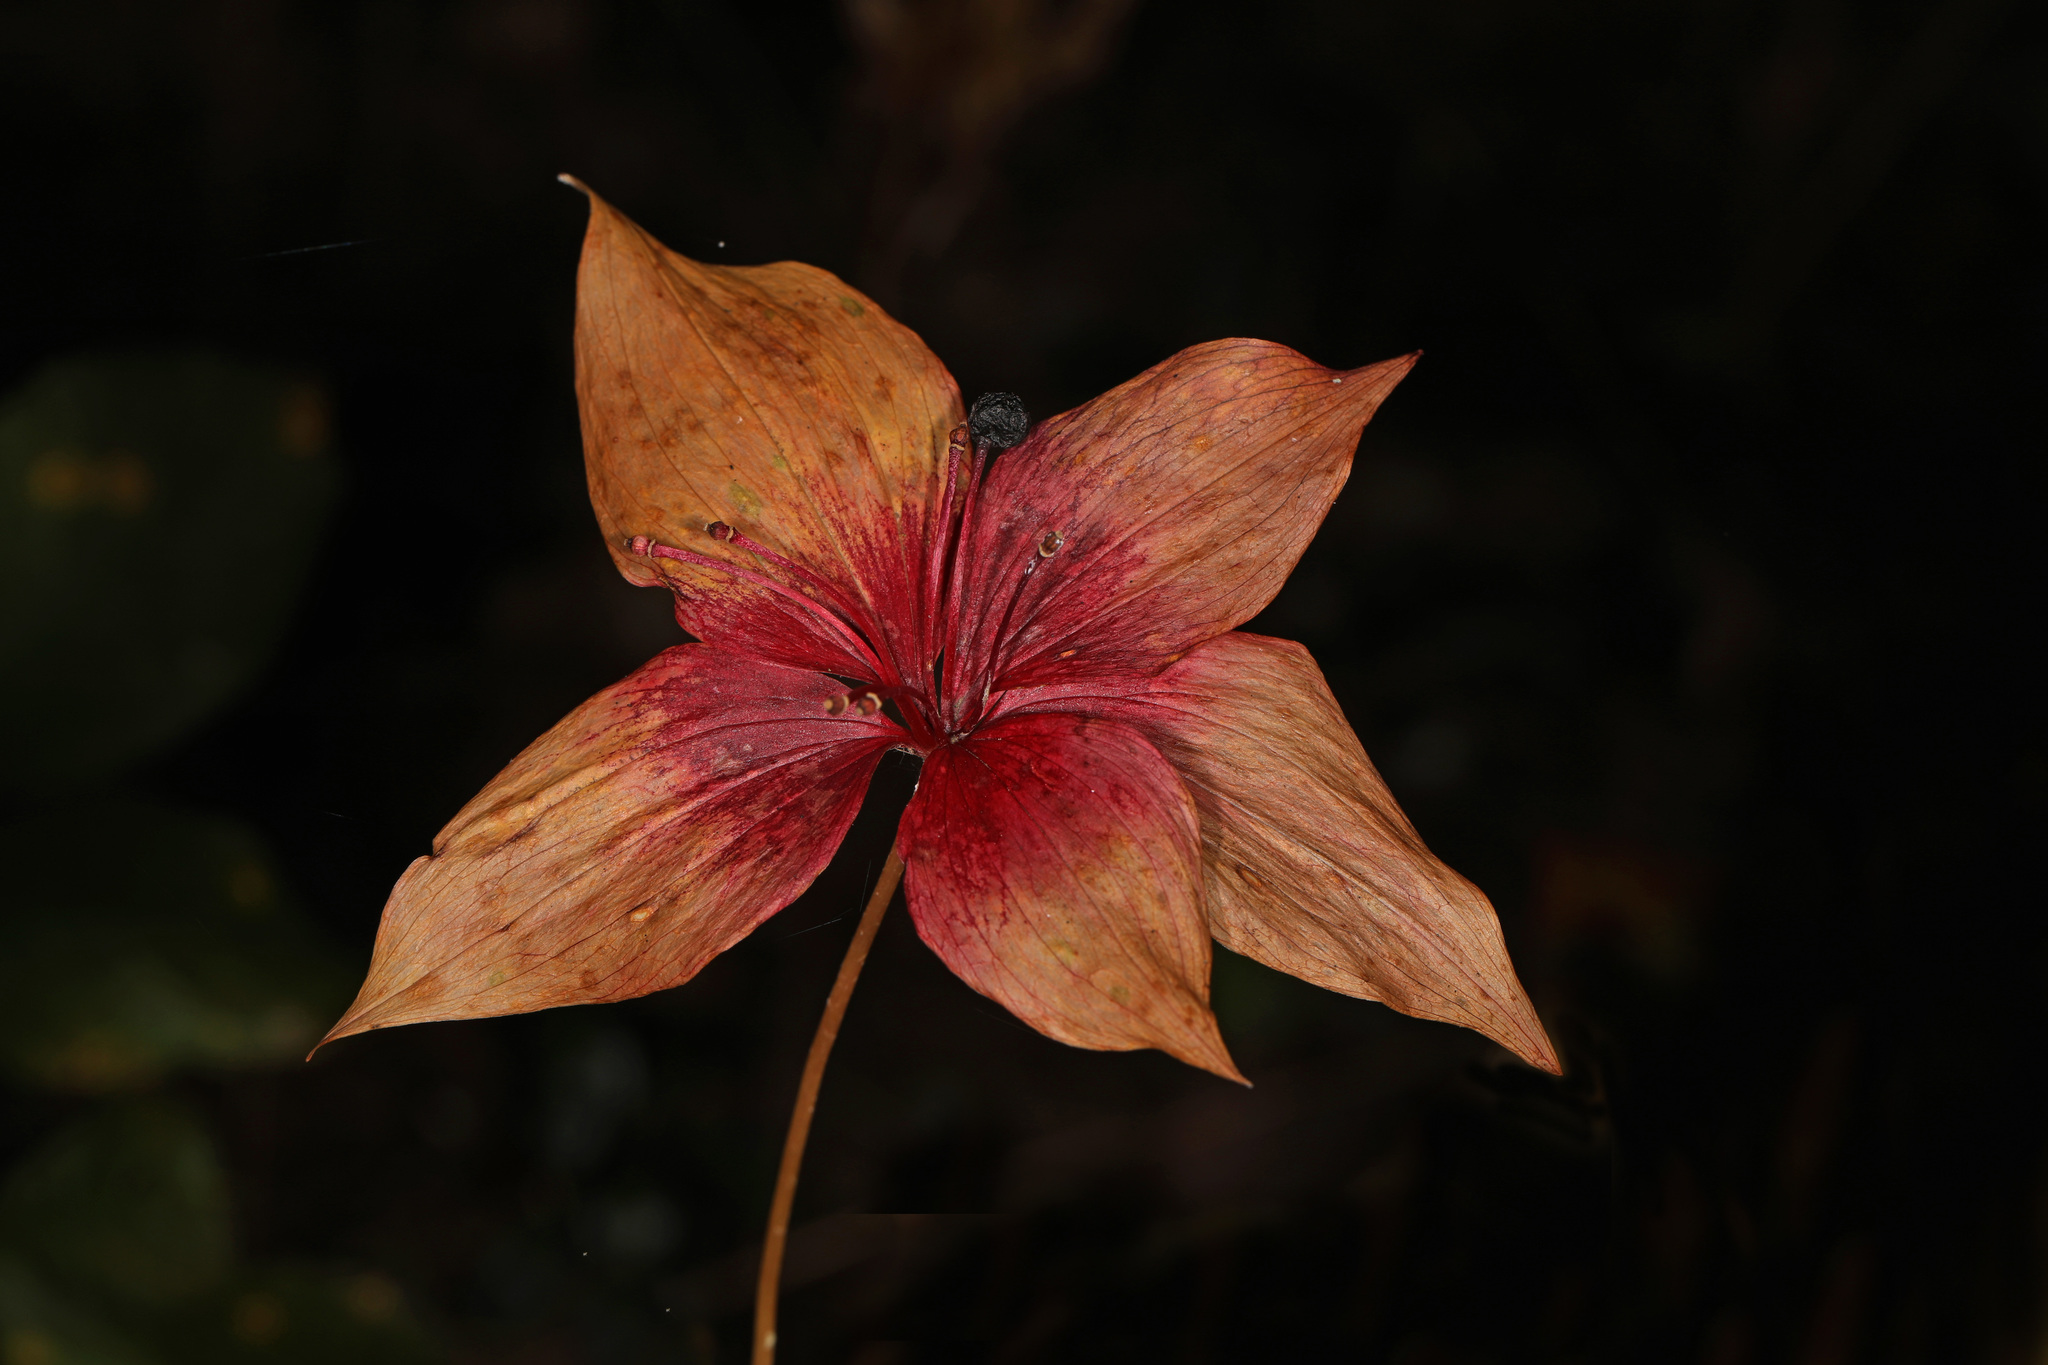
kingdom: Plantae
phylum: Tracheophyta
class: Liliopsida
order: Liliales
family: Liliaceae
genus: Medeola
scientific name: Medeola virginiana
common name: Indian cucumber-root
